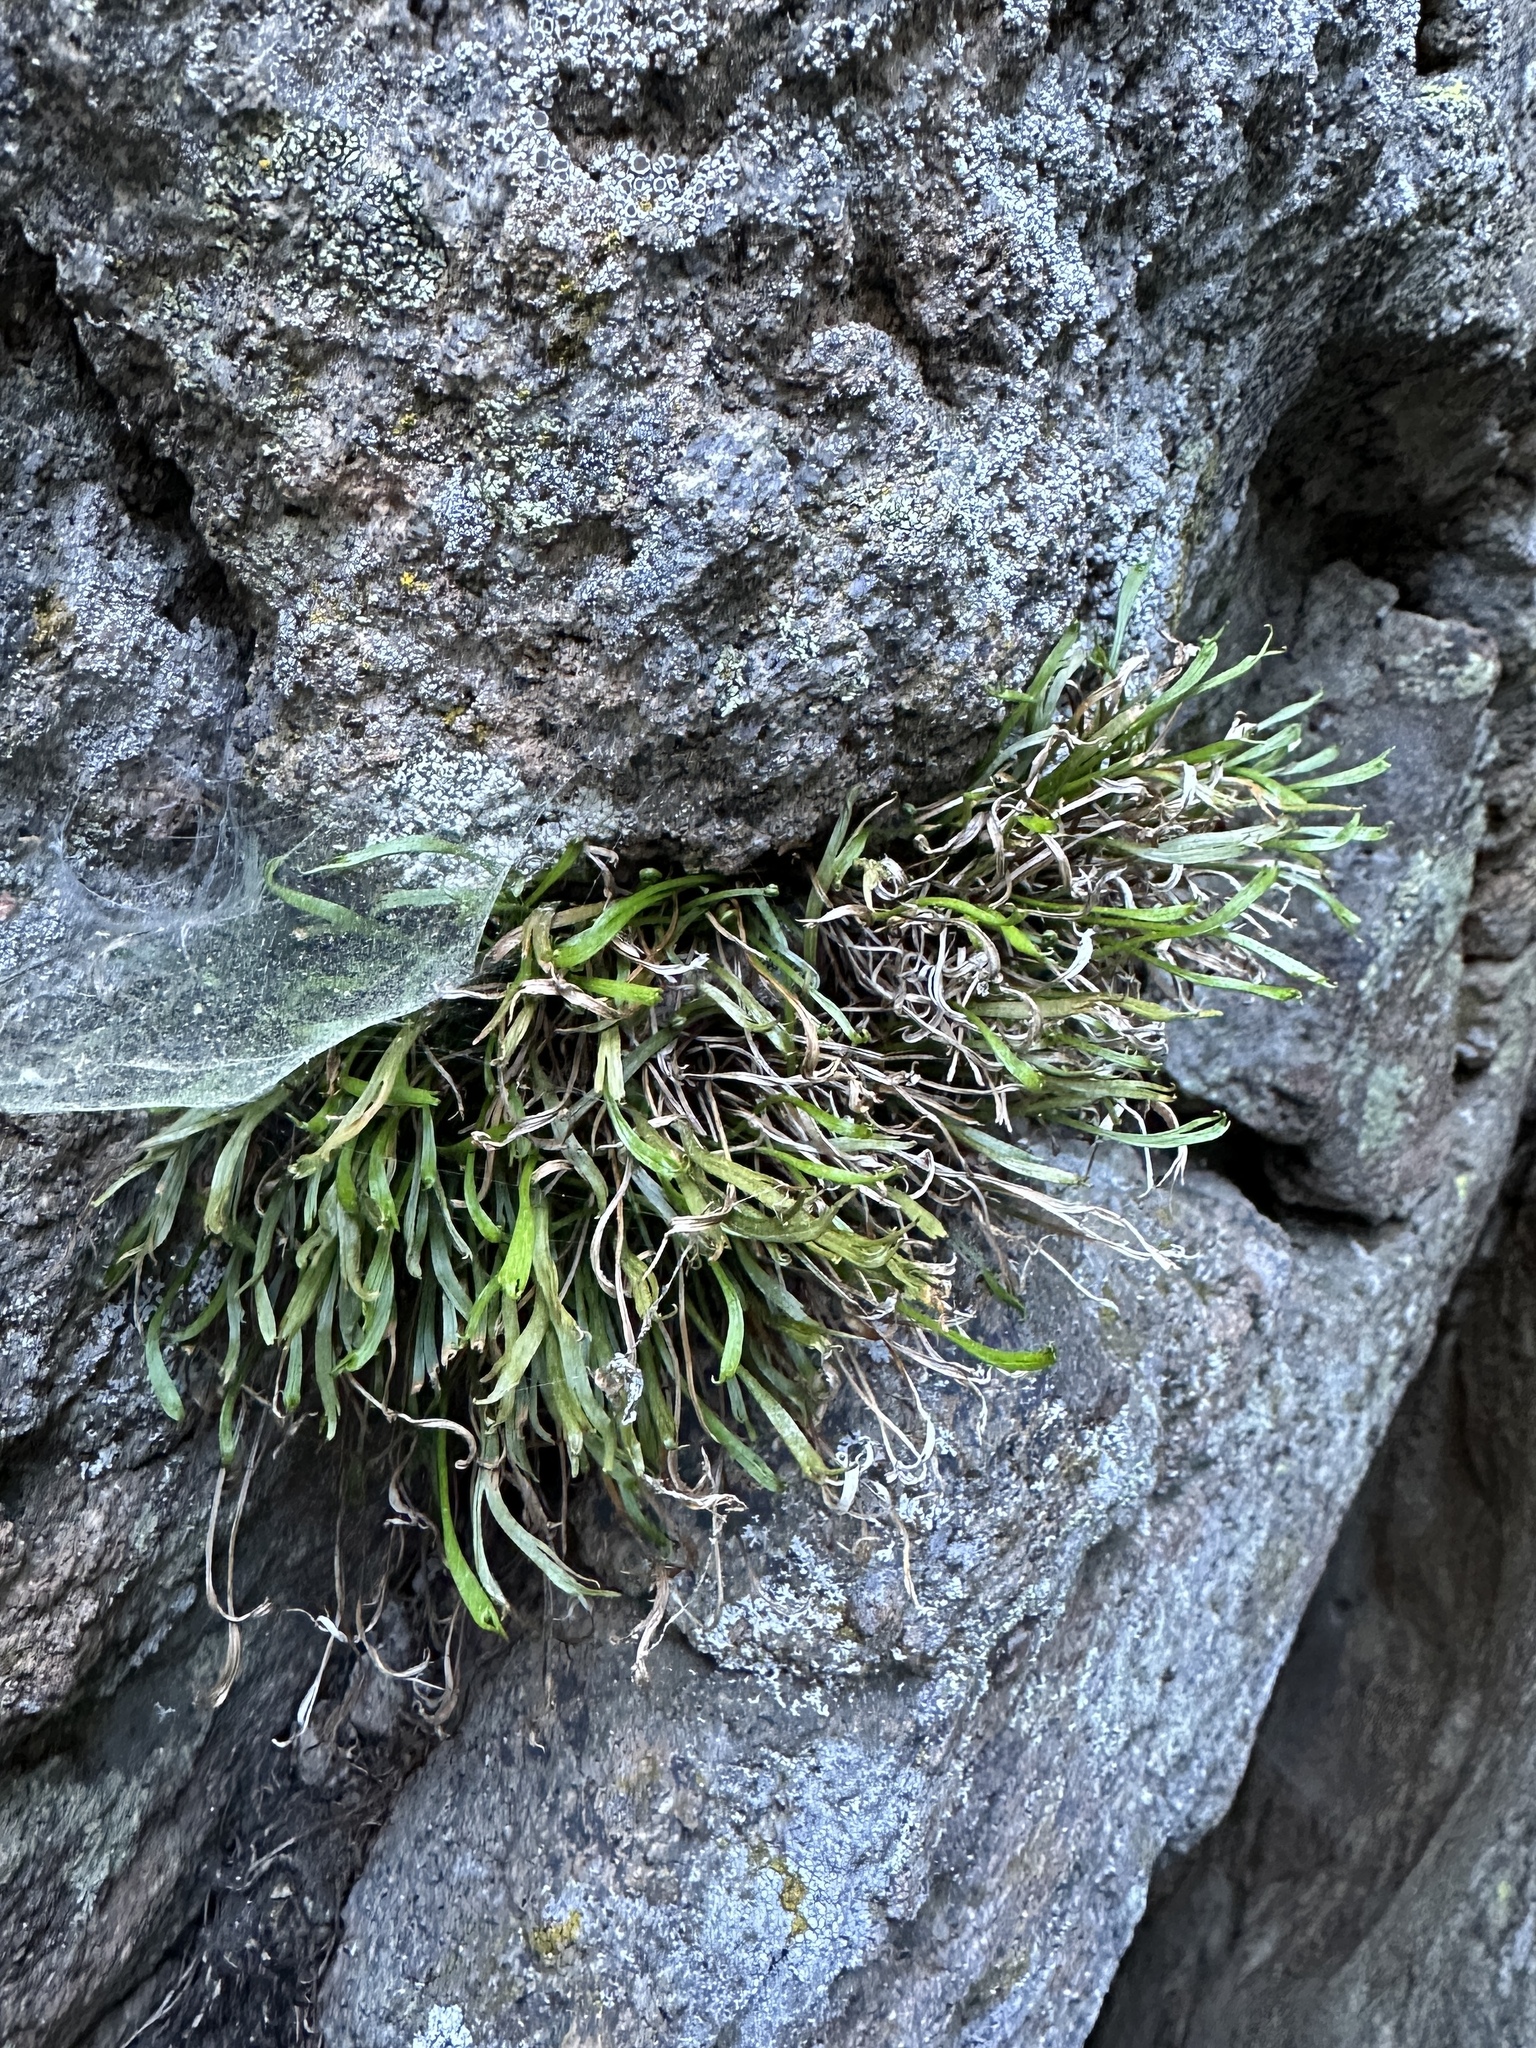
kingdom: Plantae
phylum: Tracheophyta
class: Polypodiopsida
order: Polypodiales
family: Aspleniaceae
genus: Asplenium
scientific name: Asplenium septentrionale
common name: Forked spleenwort
